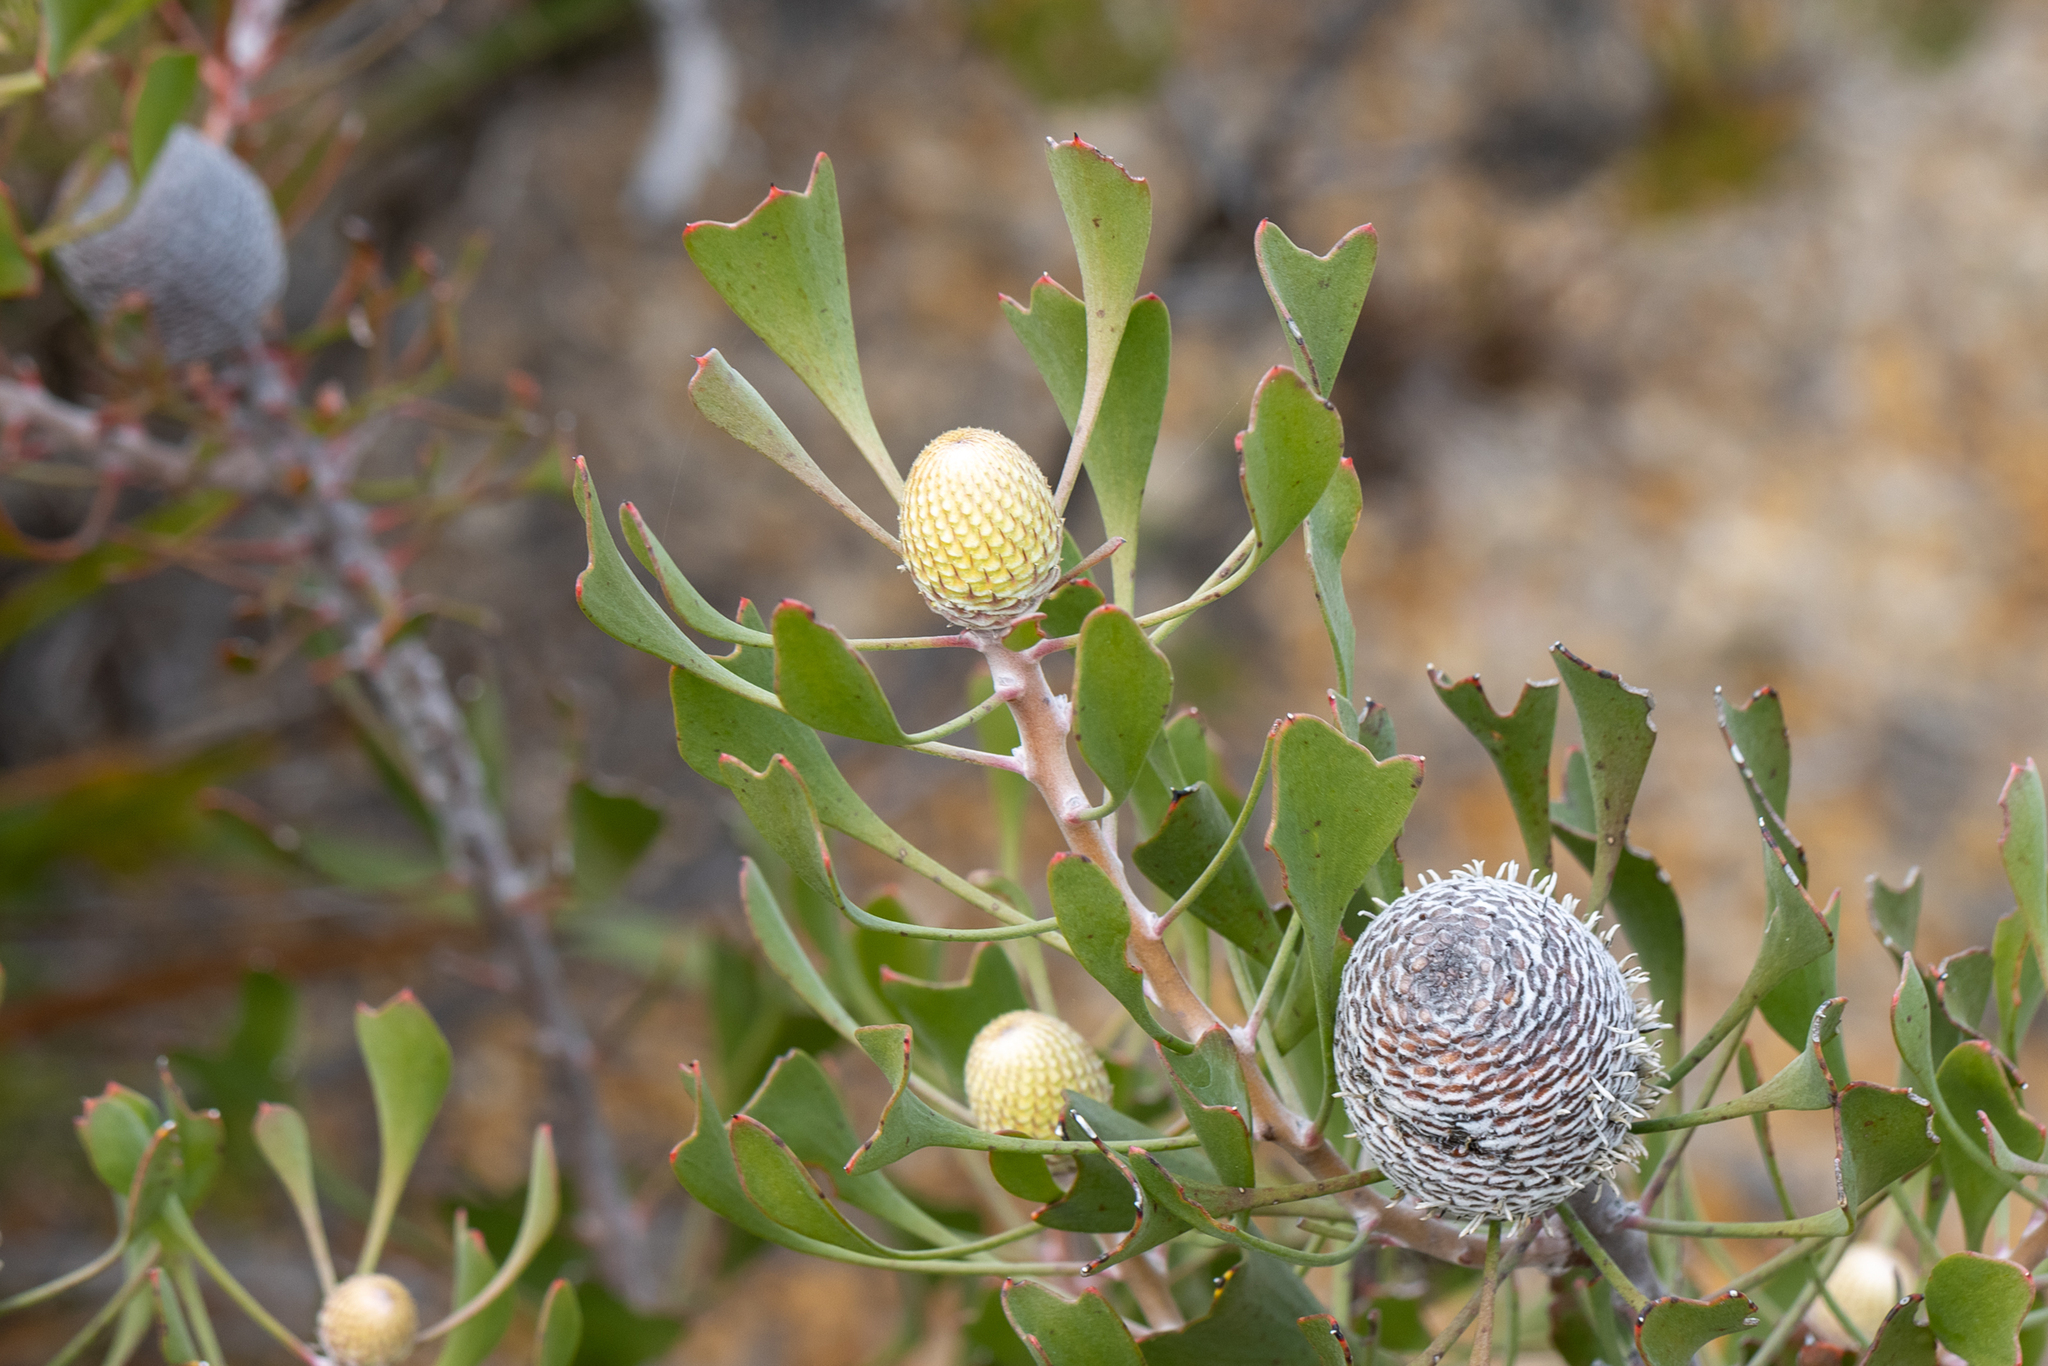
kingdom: Plantae
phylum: Tracheophyta
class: Magnoliopsida
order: Proteales
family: Proteaceae
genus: Isopogon
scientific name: Isopogon trilobus
